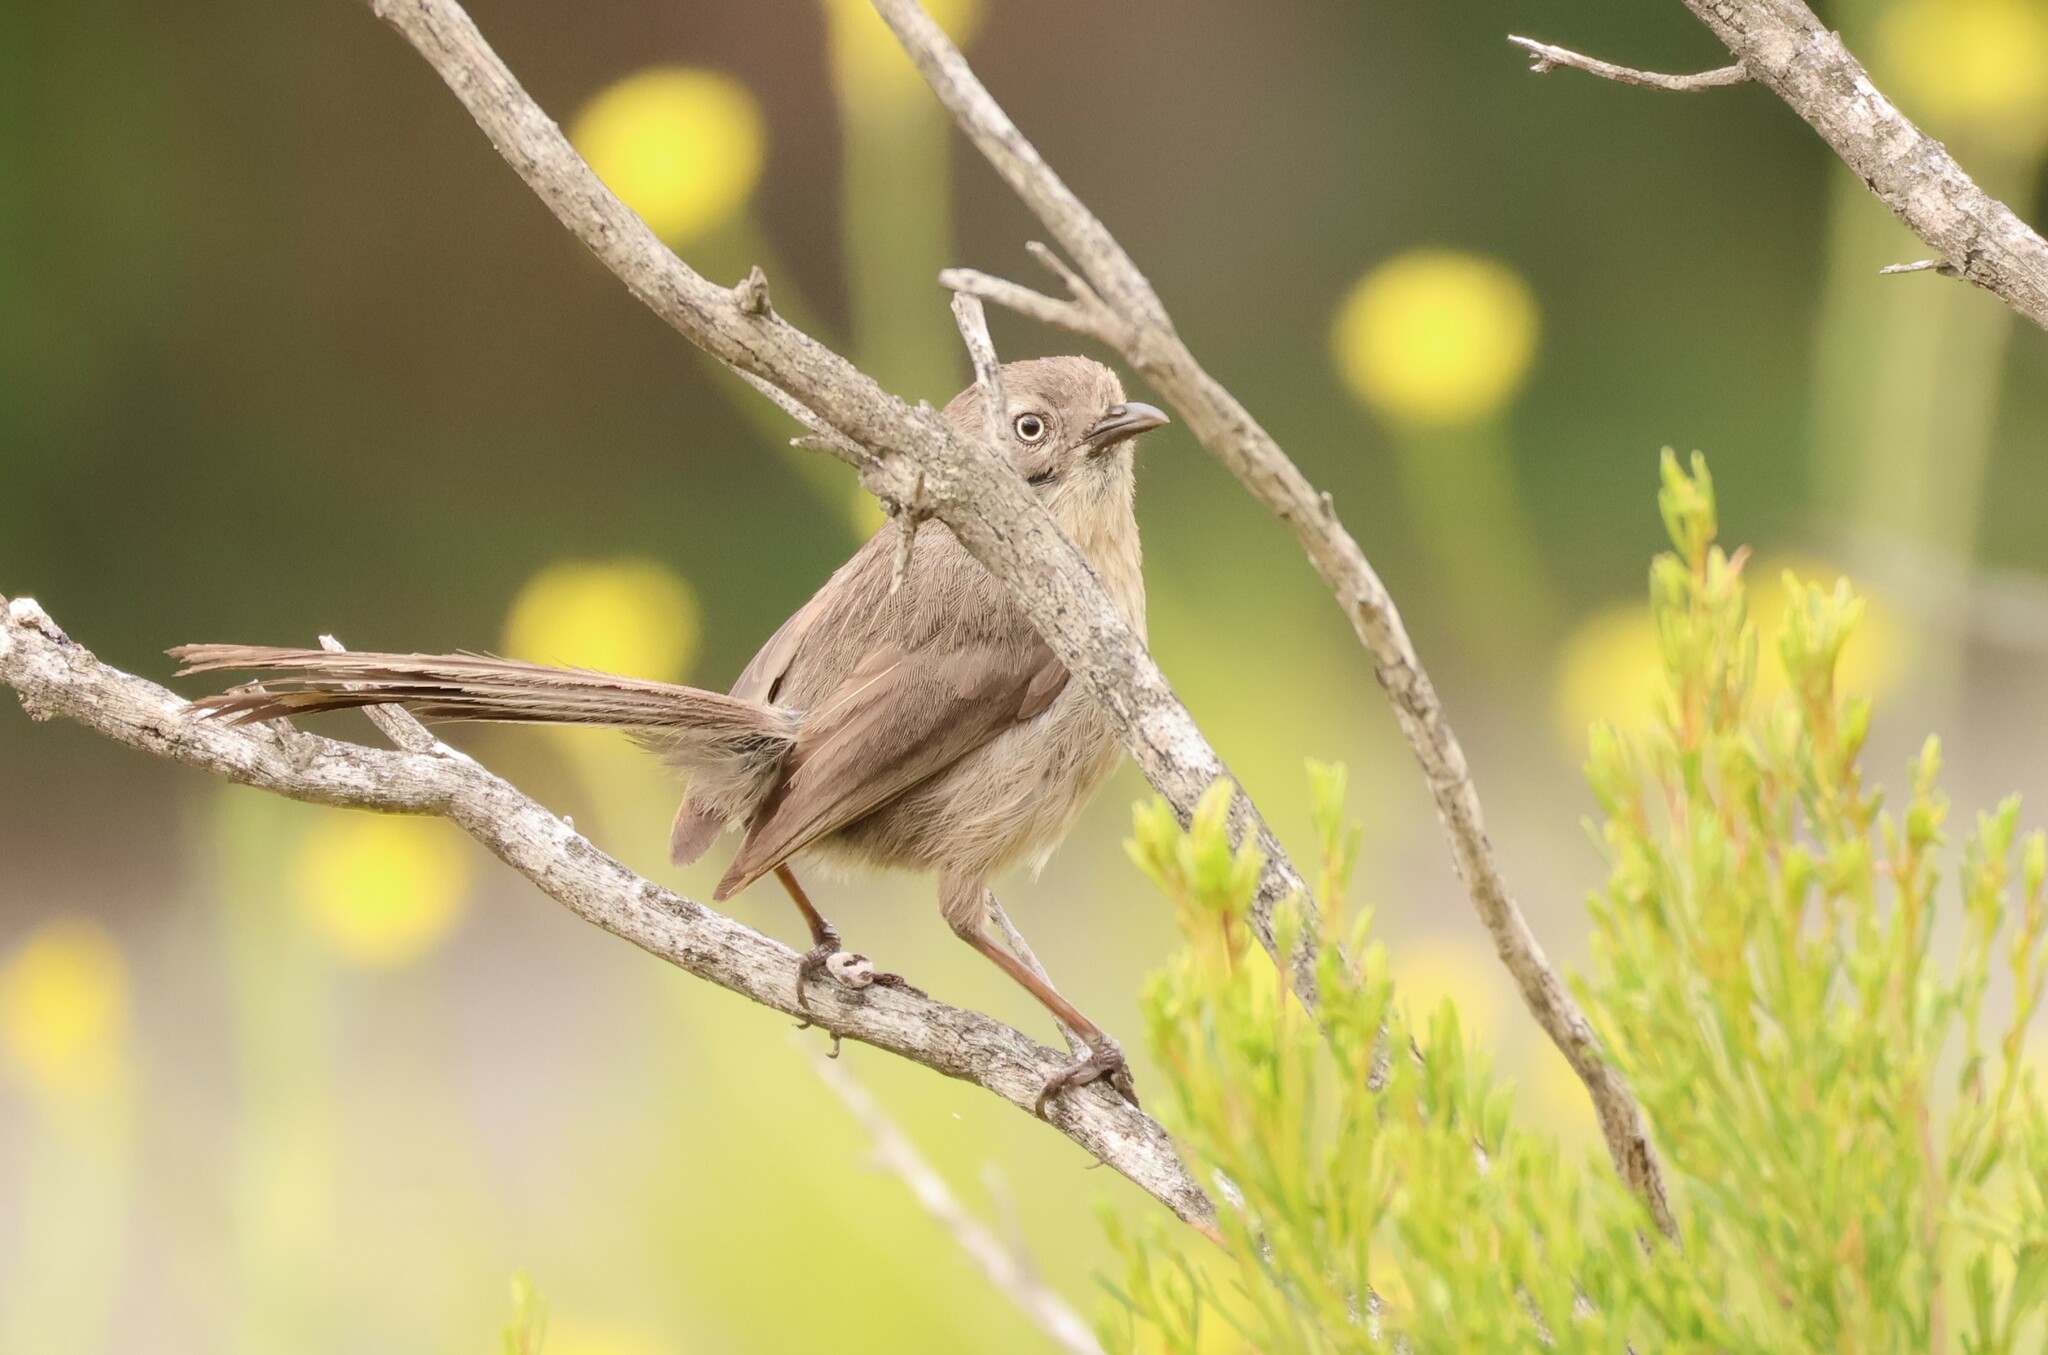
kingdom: Animalia
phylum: Chordata
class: Aves
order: Passeriformes
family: Sylviidae
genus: Chamaea
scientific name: Chamaea fasciata
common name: Wrentit
